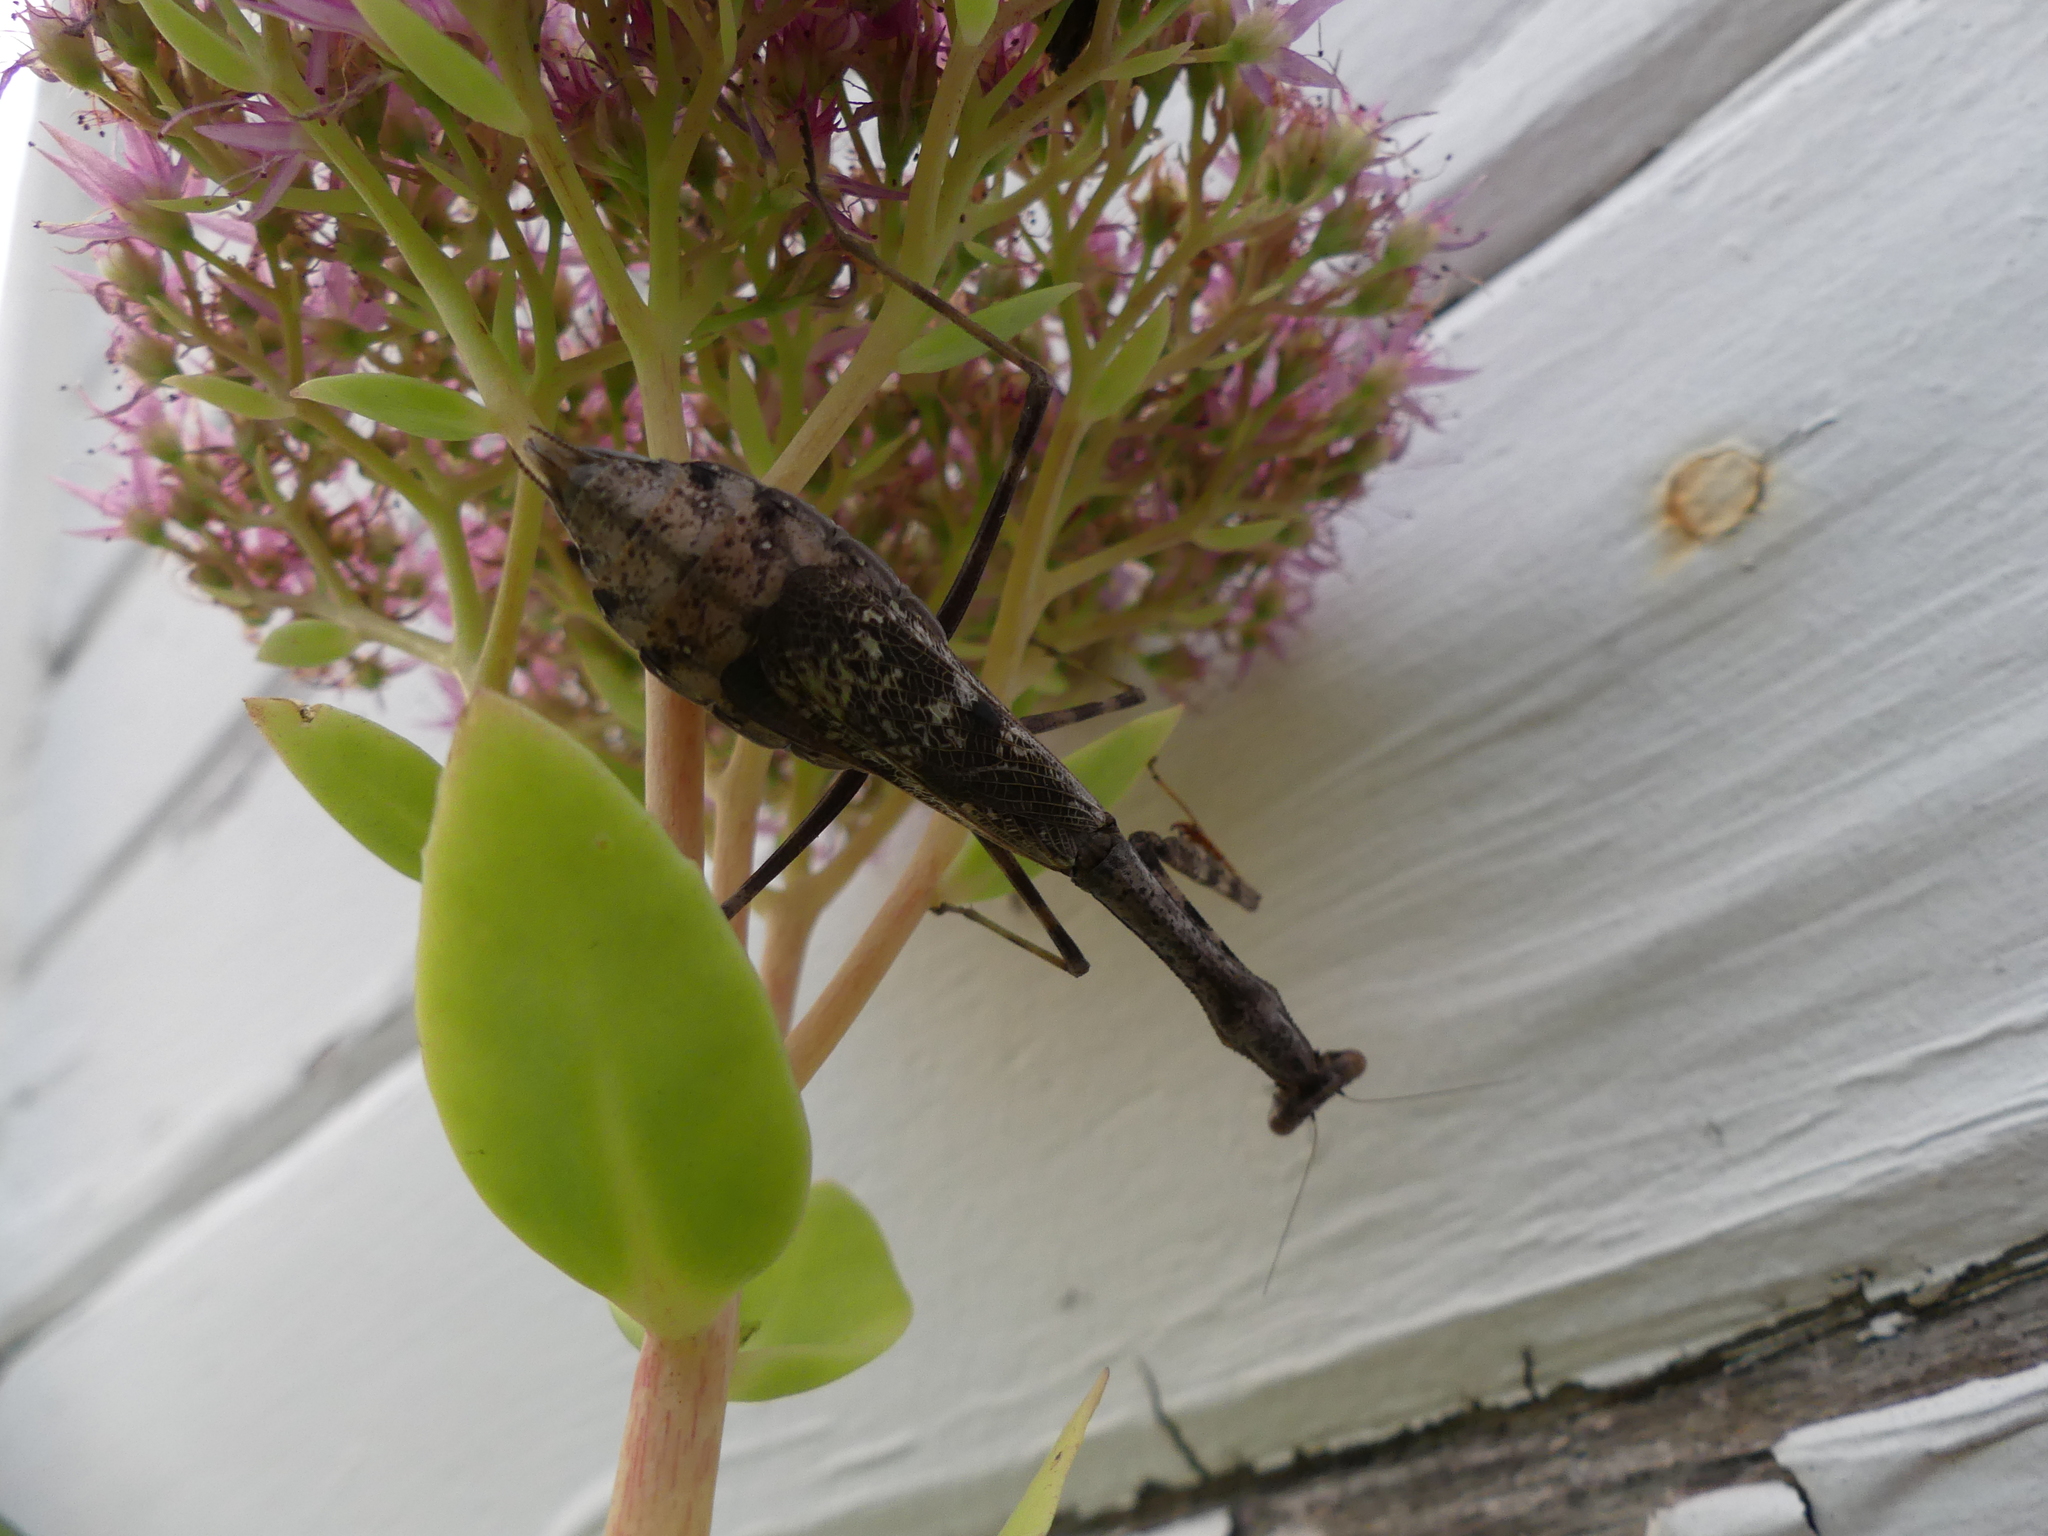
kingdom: Animalia
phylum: Arthropoda
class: Insecta
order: Mantodea
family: Mantidae
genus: Stagmomantis
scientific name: Stagmomantis carolina
